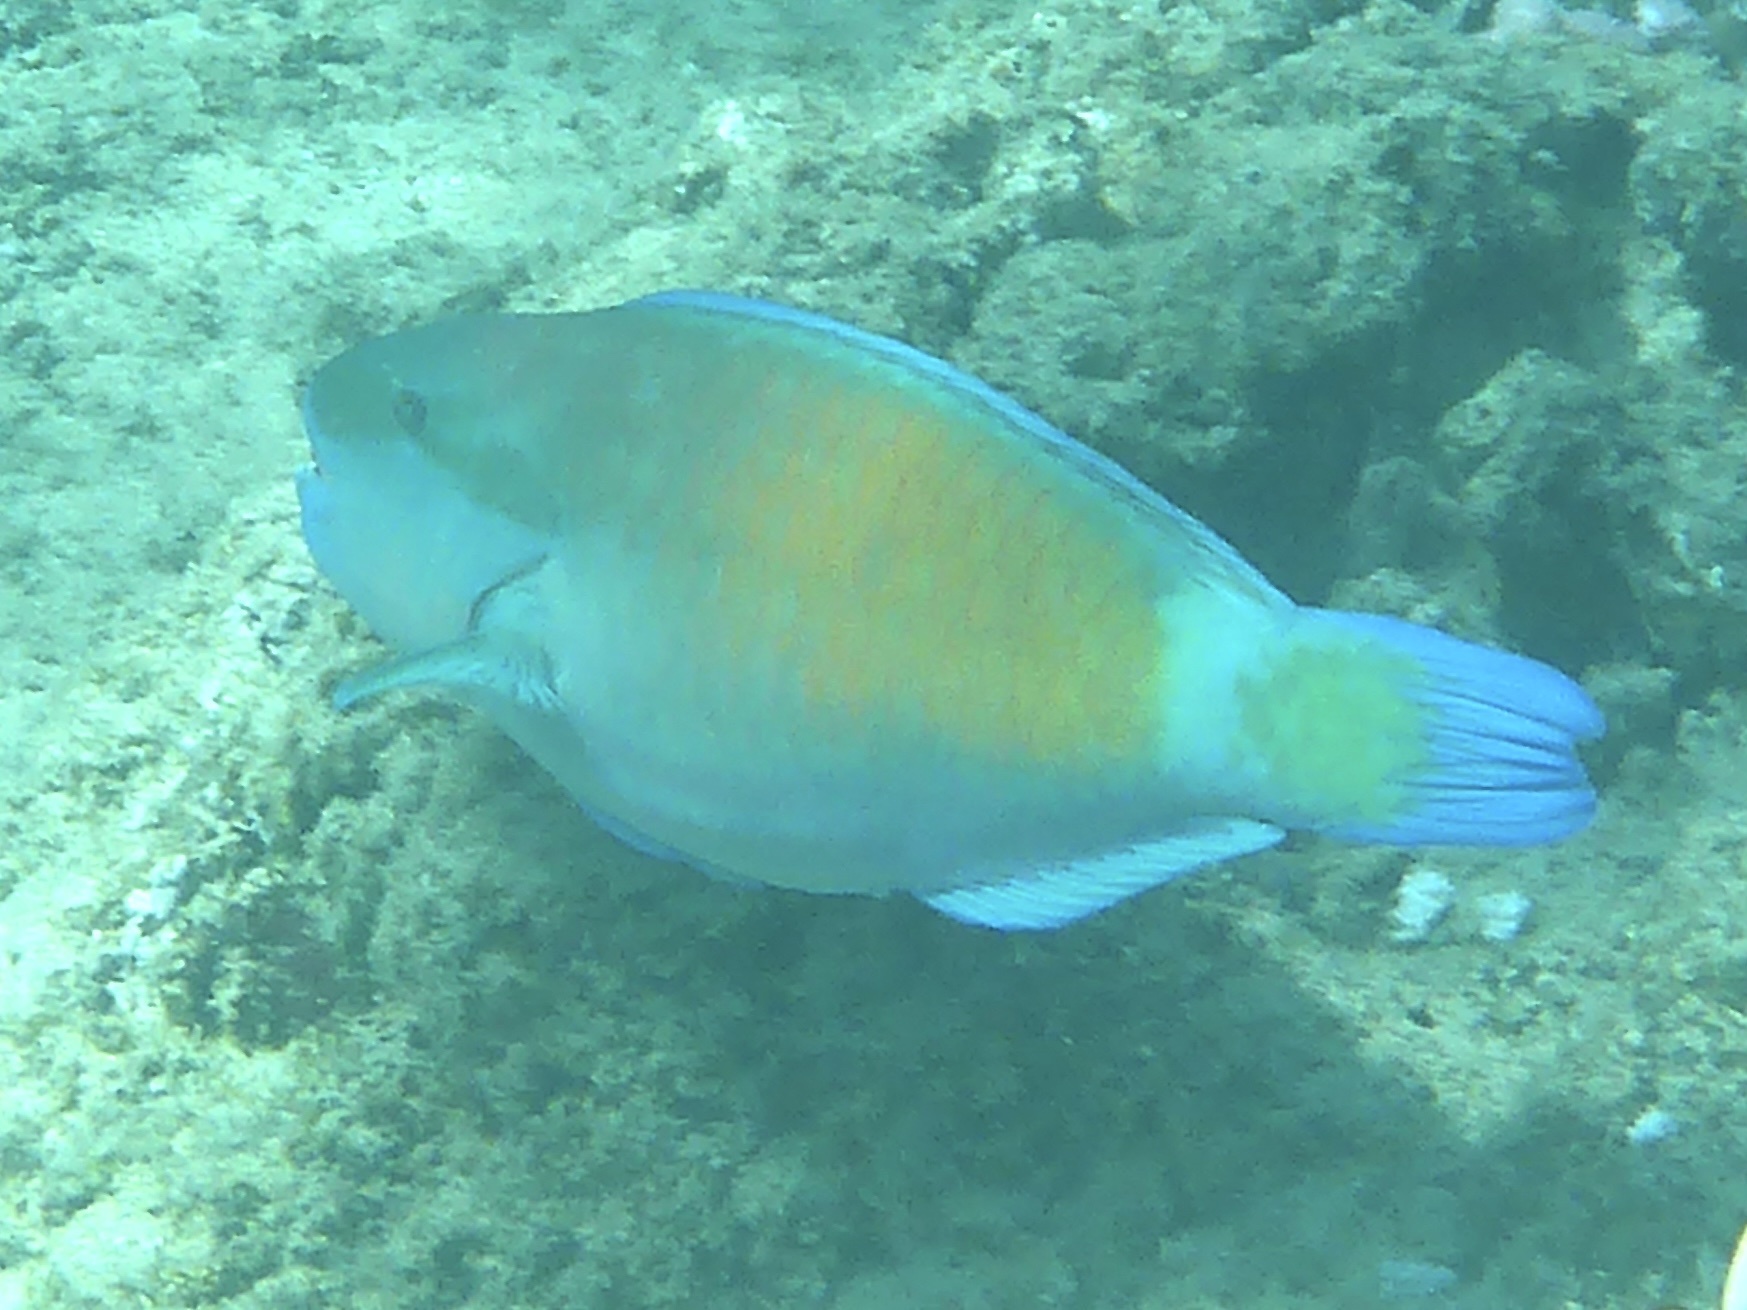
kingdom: Animalia
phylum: Chordata
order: Perciformes
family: Scaridae
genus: Chlorurus
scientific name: Chlorurus spilurus
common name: Bullethead parrotfish
